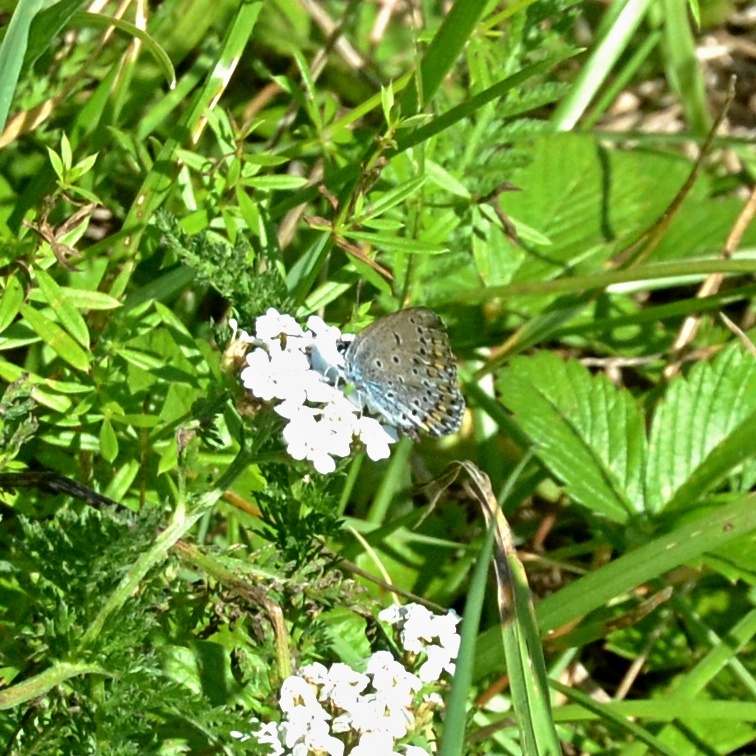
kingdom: Animalia
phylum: Arthropoda
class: Insecta
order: Lepidoptera
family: Lycaenidae
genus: Plebejus
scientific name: Plebejus argyrognomon
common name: Reverdin's blue
